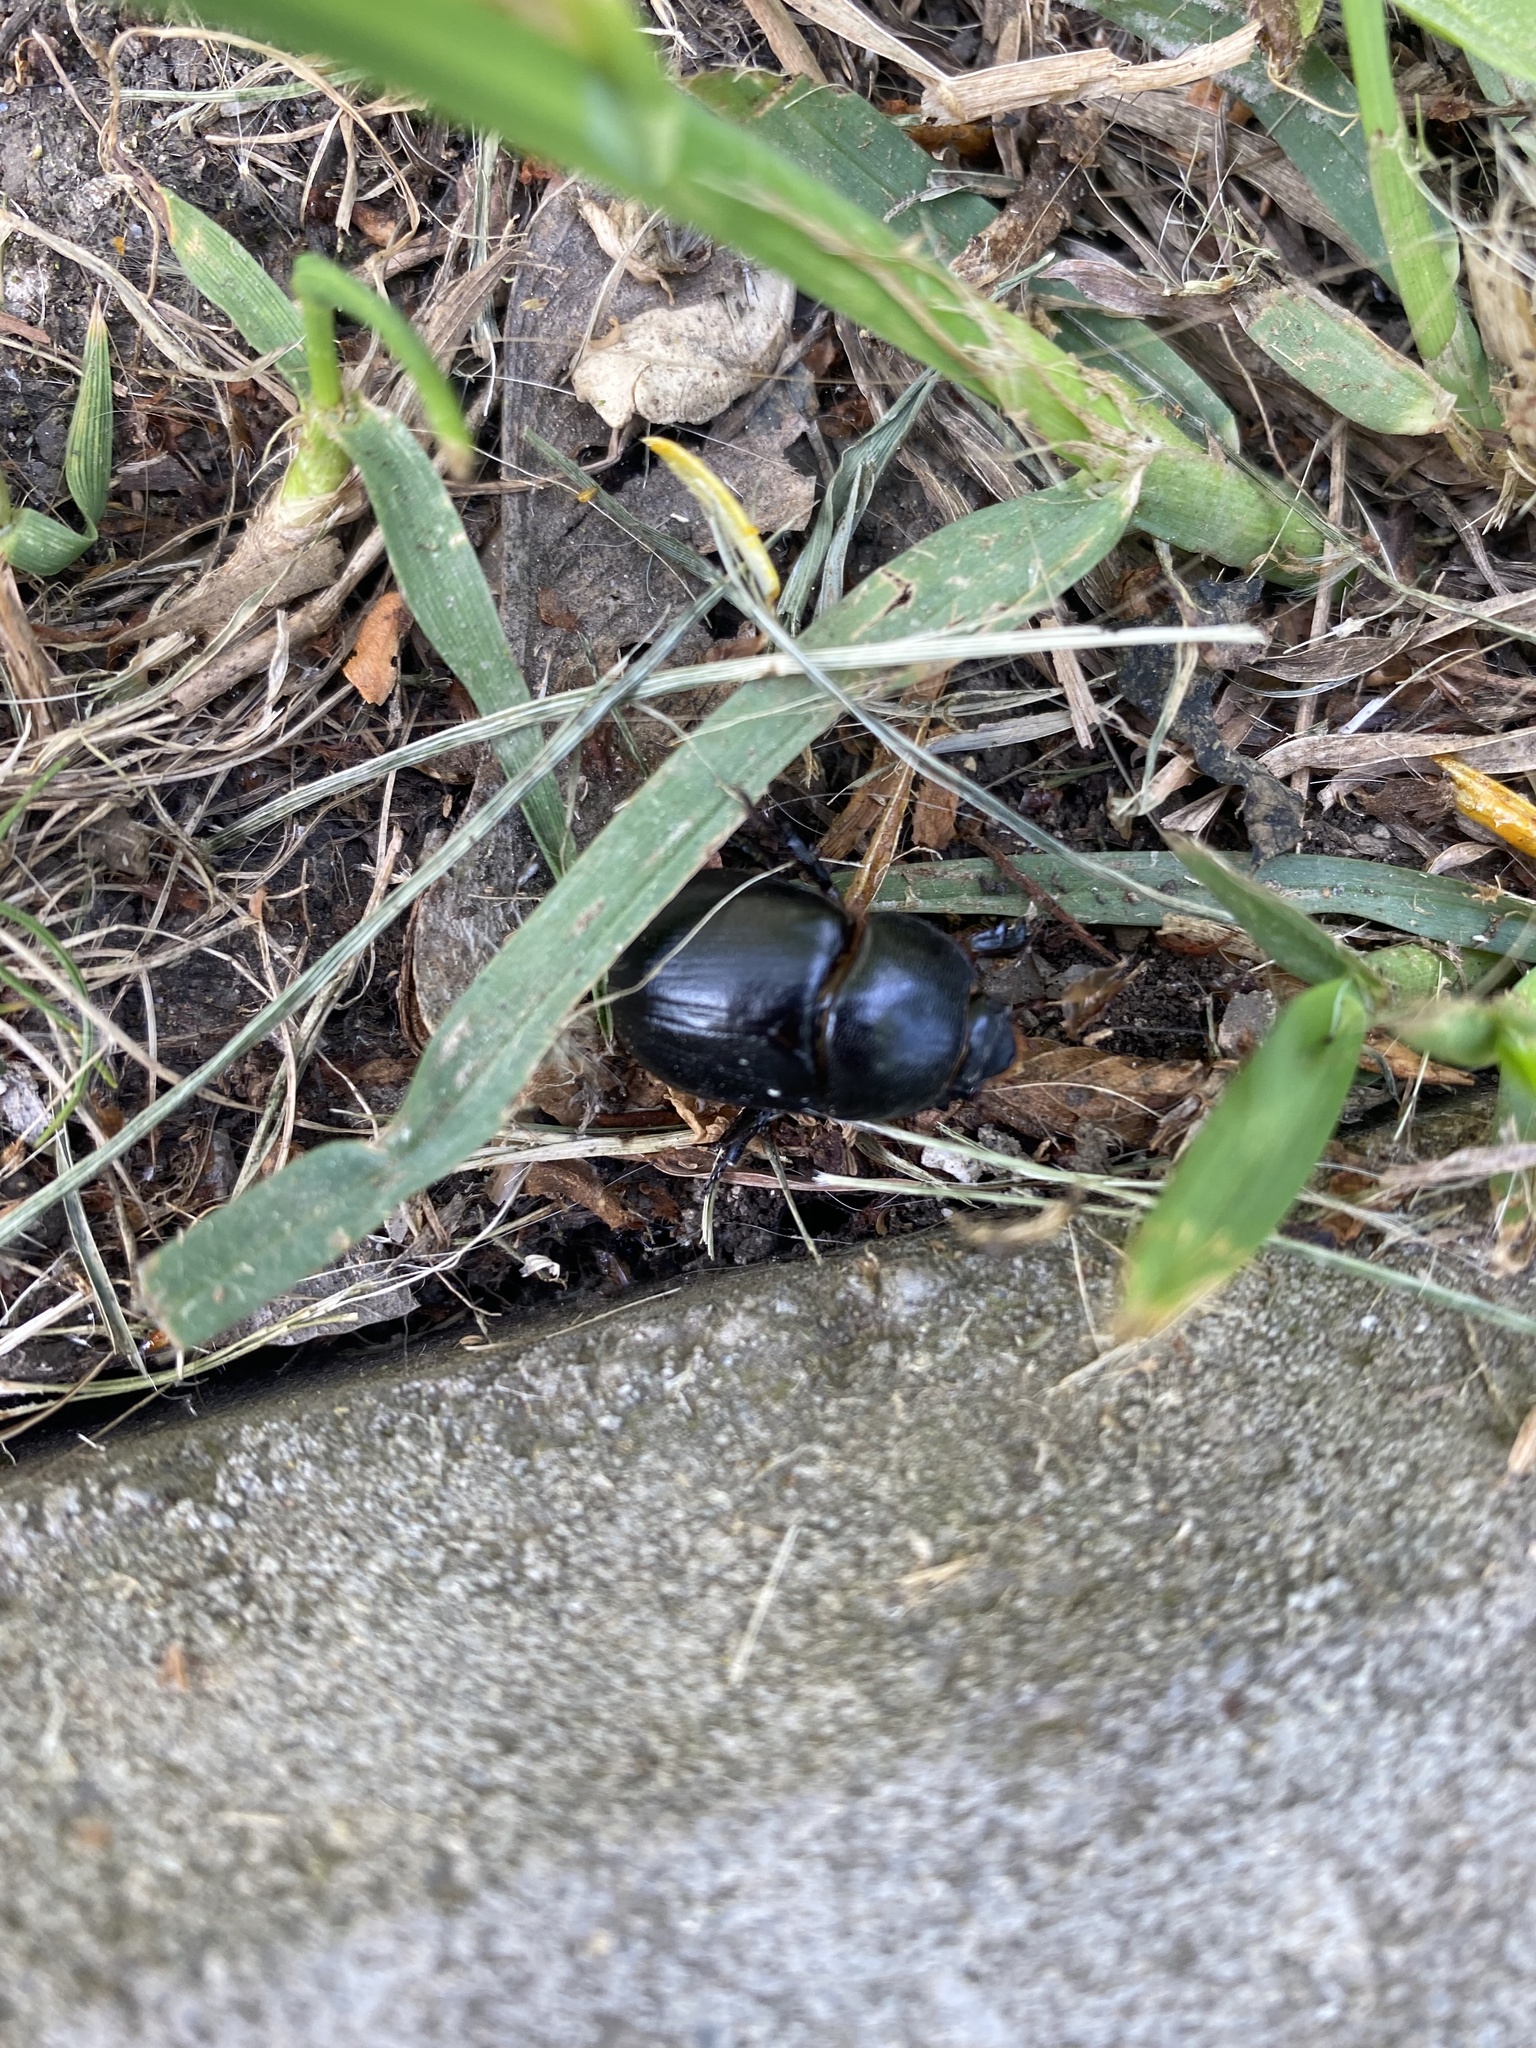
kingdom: Animalia
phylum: Arthropoda
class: Insecta
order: Coleoptera
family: Scarabaeidae
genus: Pentodon
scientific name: Pentodon
